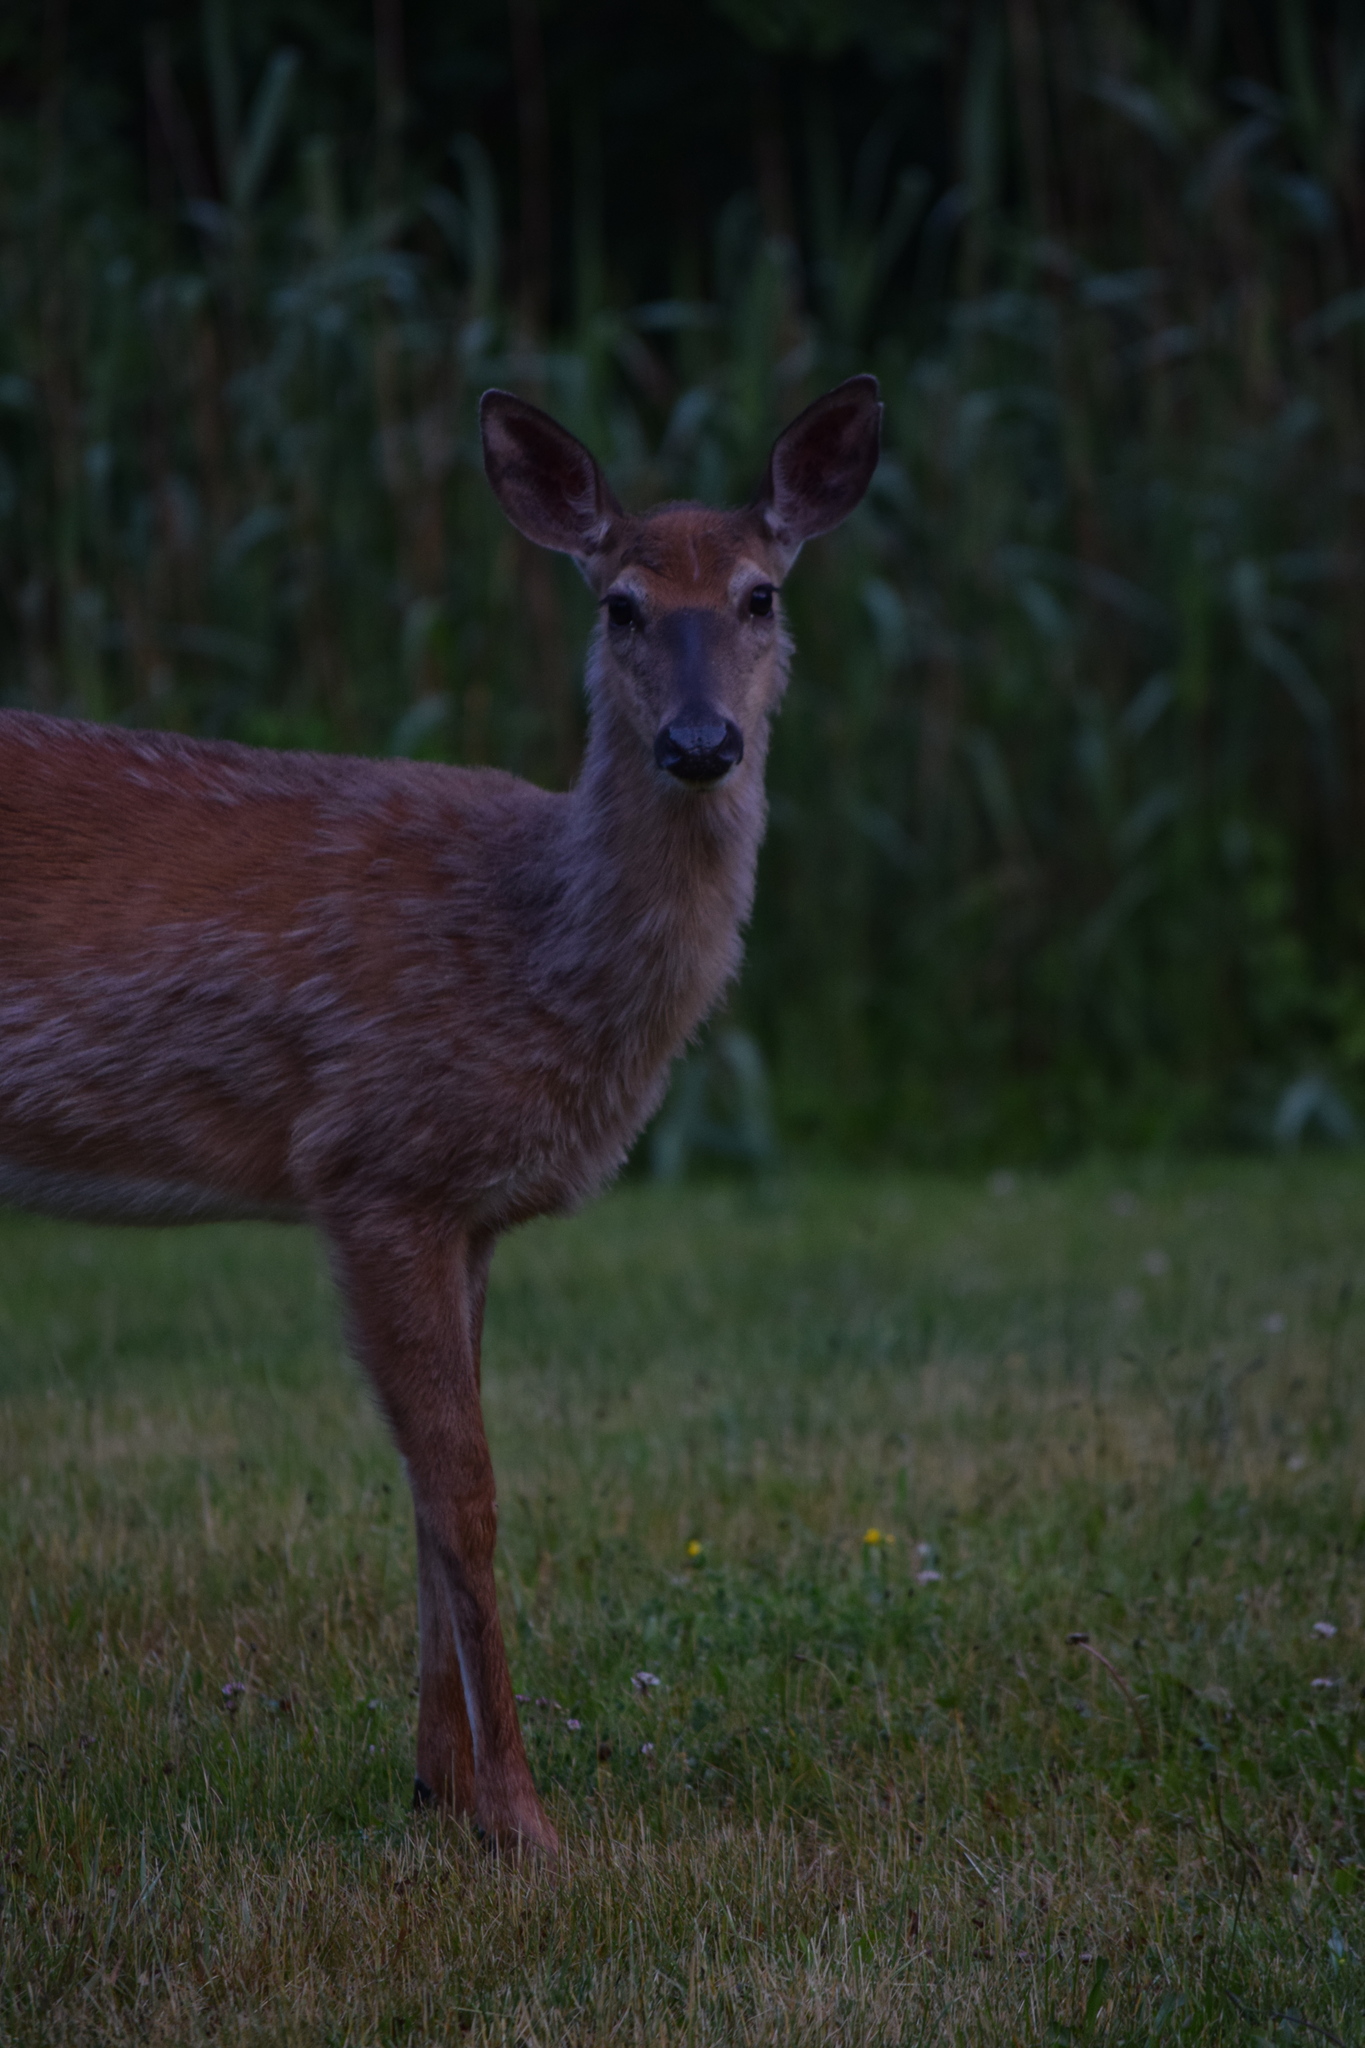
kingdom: Animalia
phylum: Chordata
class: Mammalia
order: Artiodactyla
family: Cervidae
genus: Odocoileus
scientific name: Odocoileus virginianus
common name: White-tailed deer
